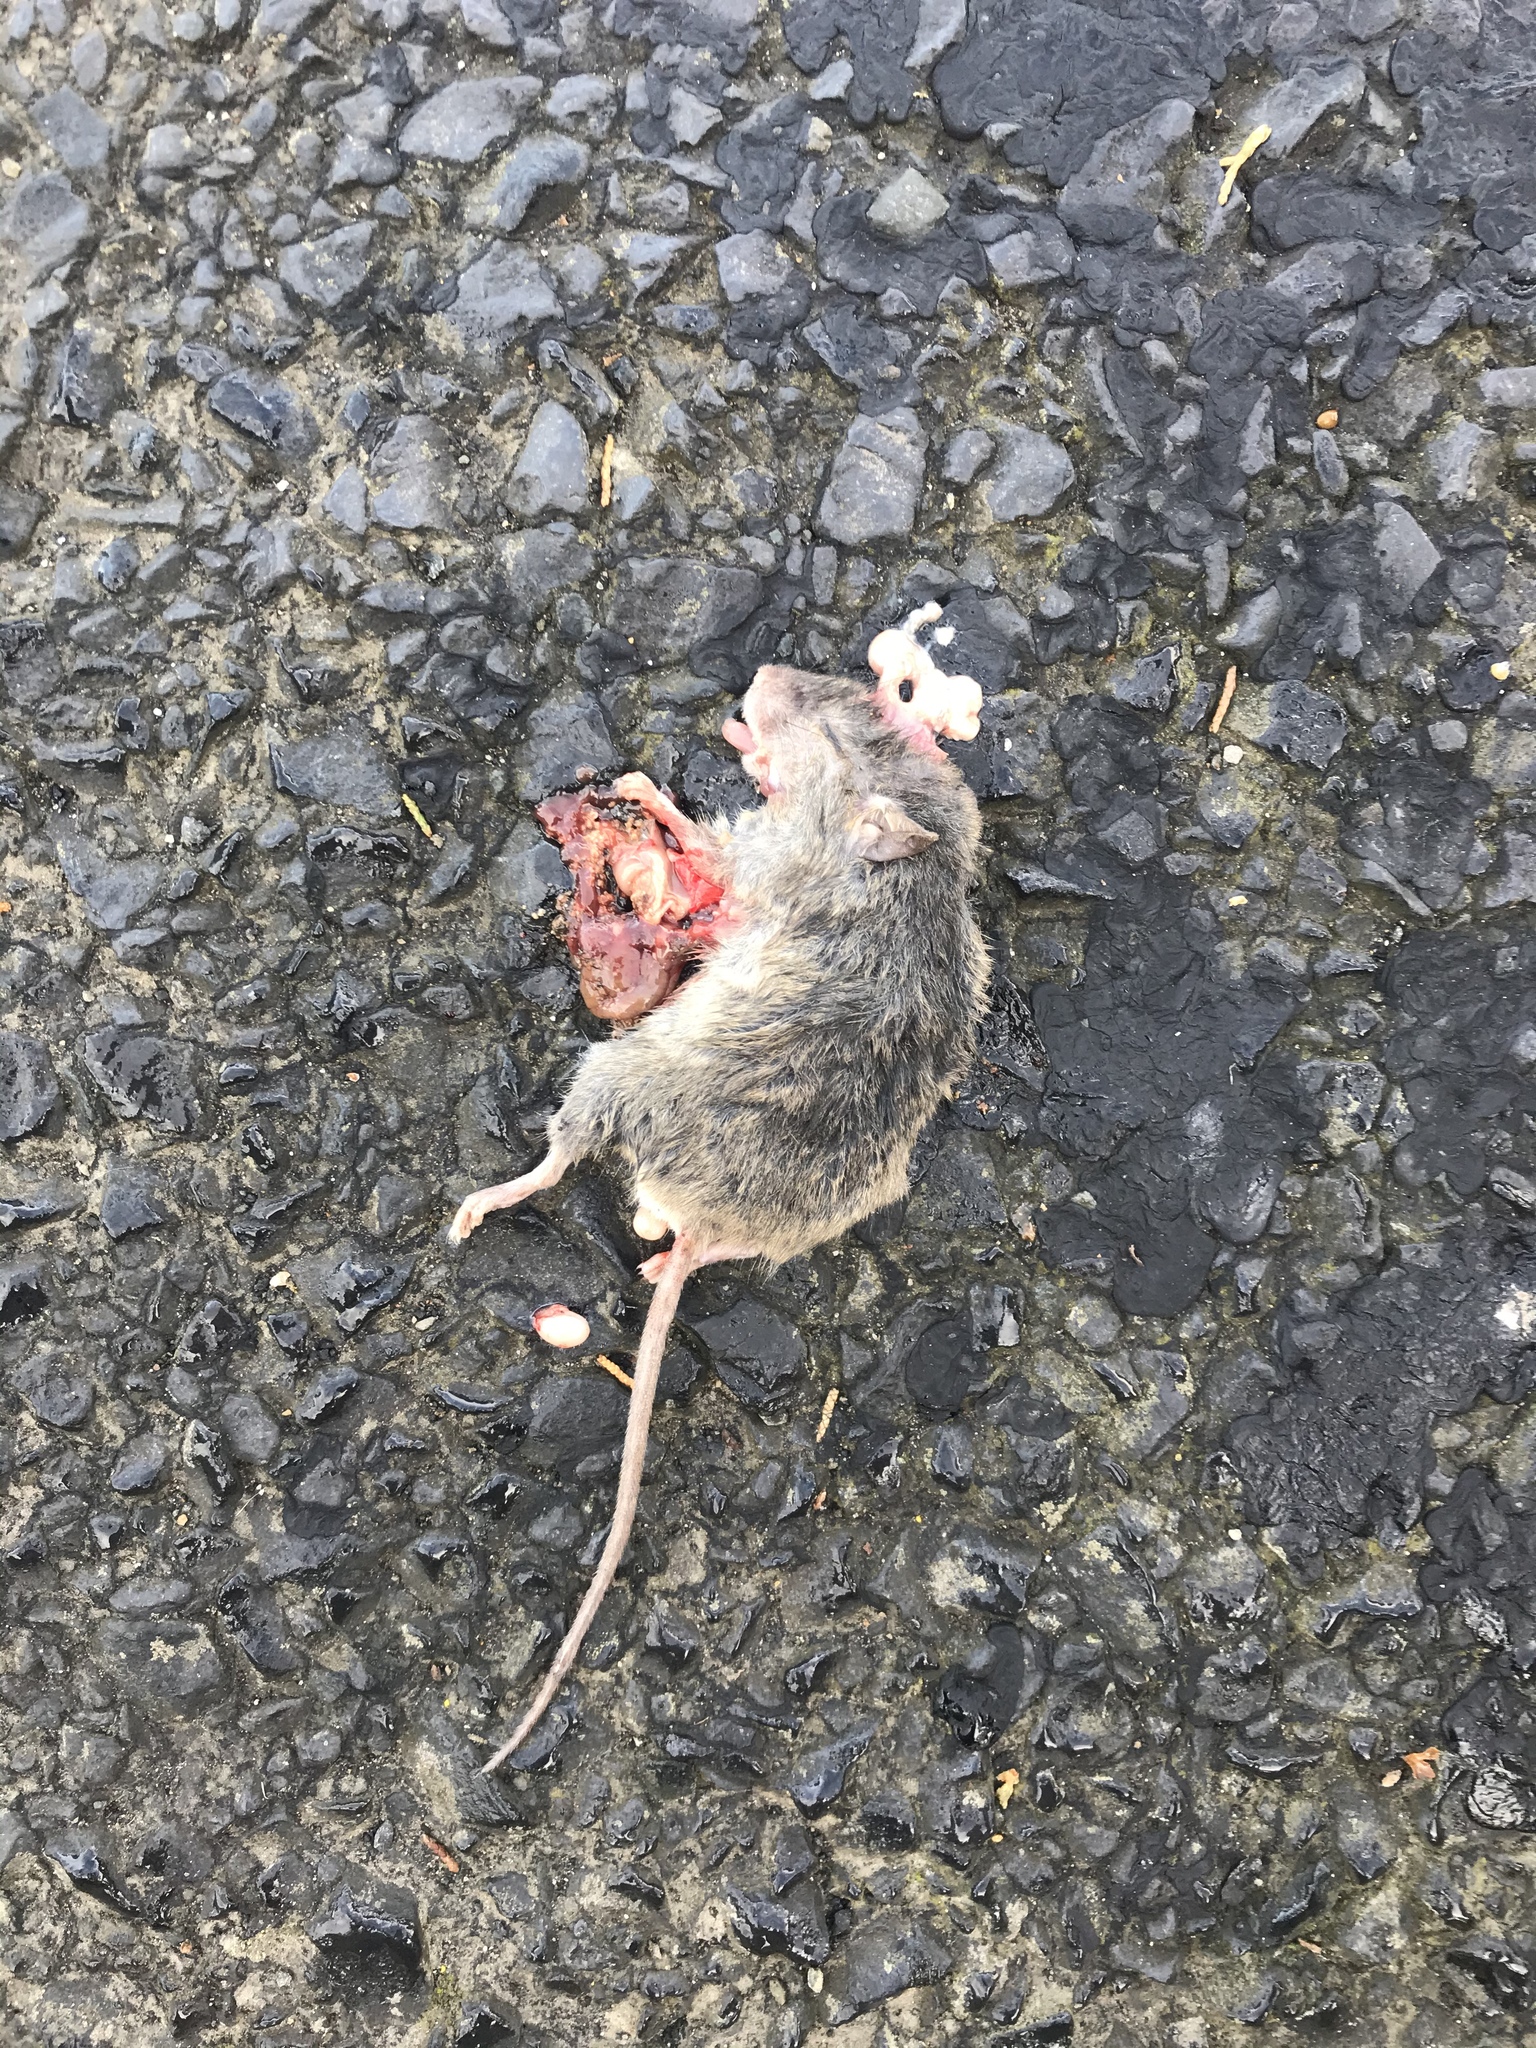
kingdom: Animalia
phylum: Chordata
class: Mammalia
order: Rodentia
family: Muridae
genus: Mus
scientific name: Mus musculus
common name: House mouse
